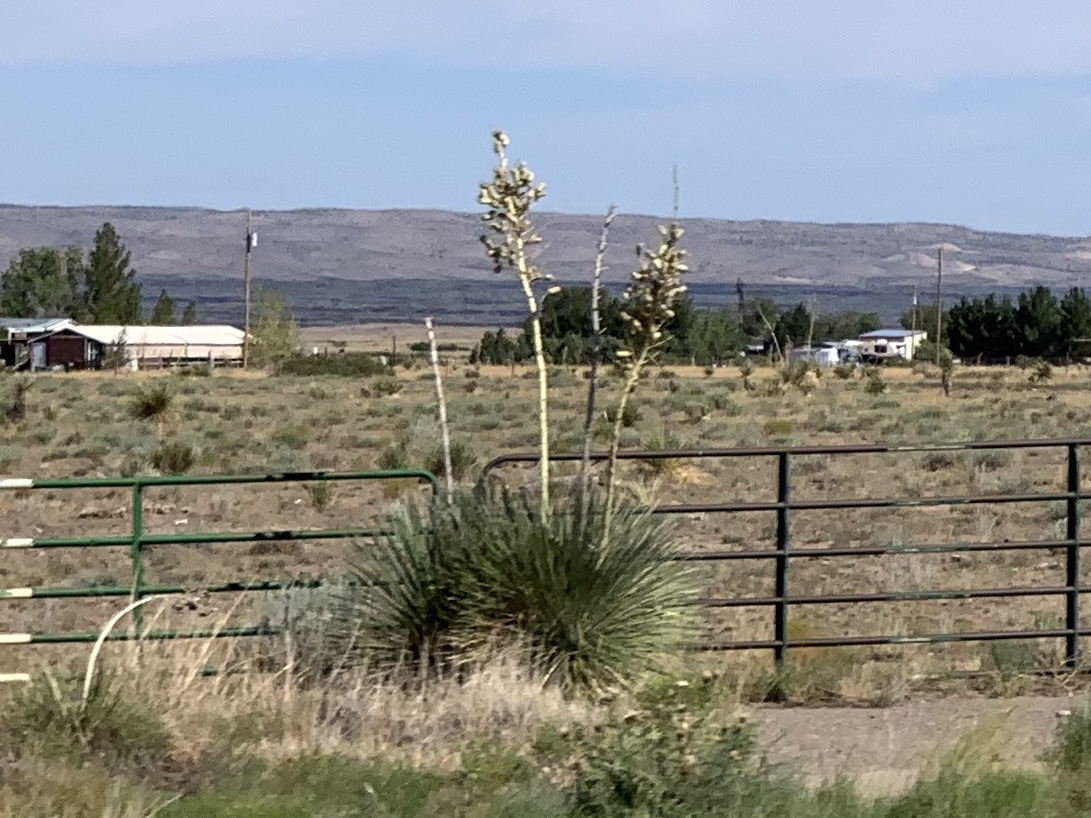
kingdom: Plantae
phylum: Tracheophyta
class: Liliopsida
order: Asparagales
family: Asparagaceae
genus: Yucca
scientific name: Yucca elata
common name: Palmella
